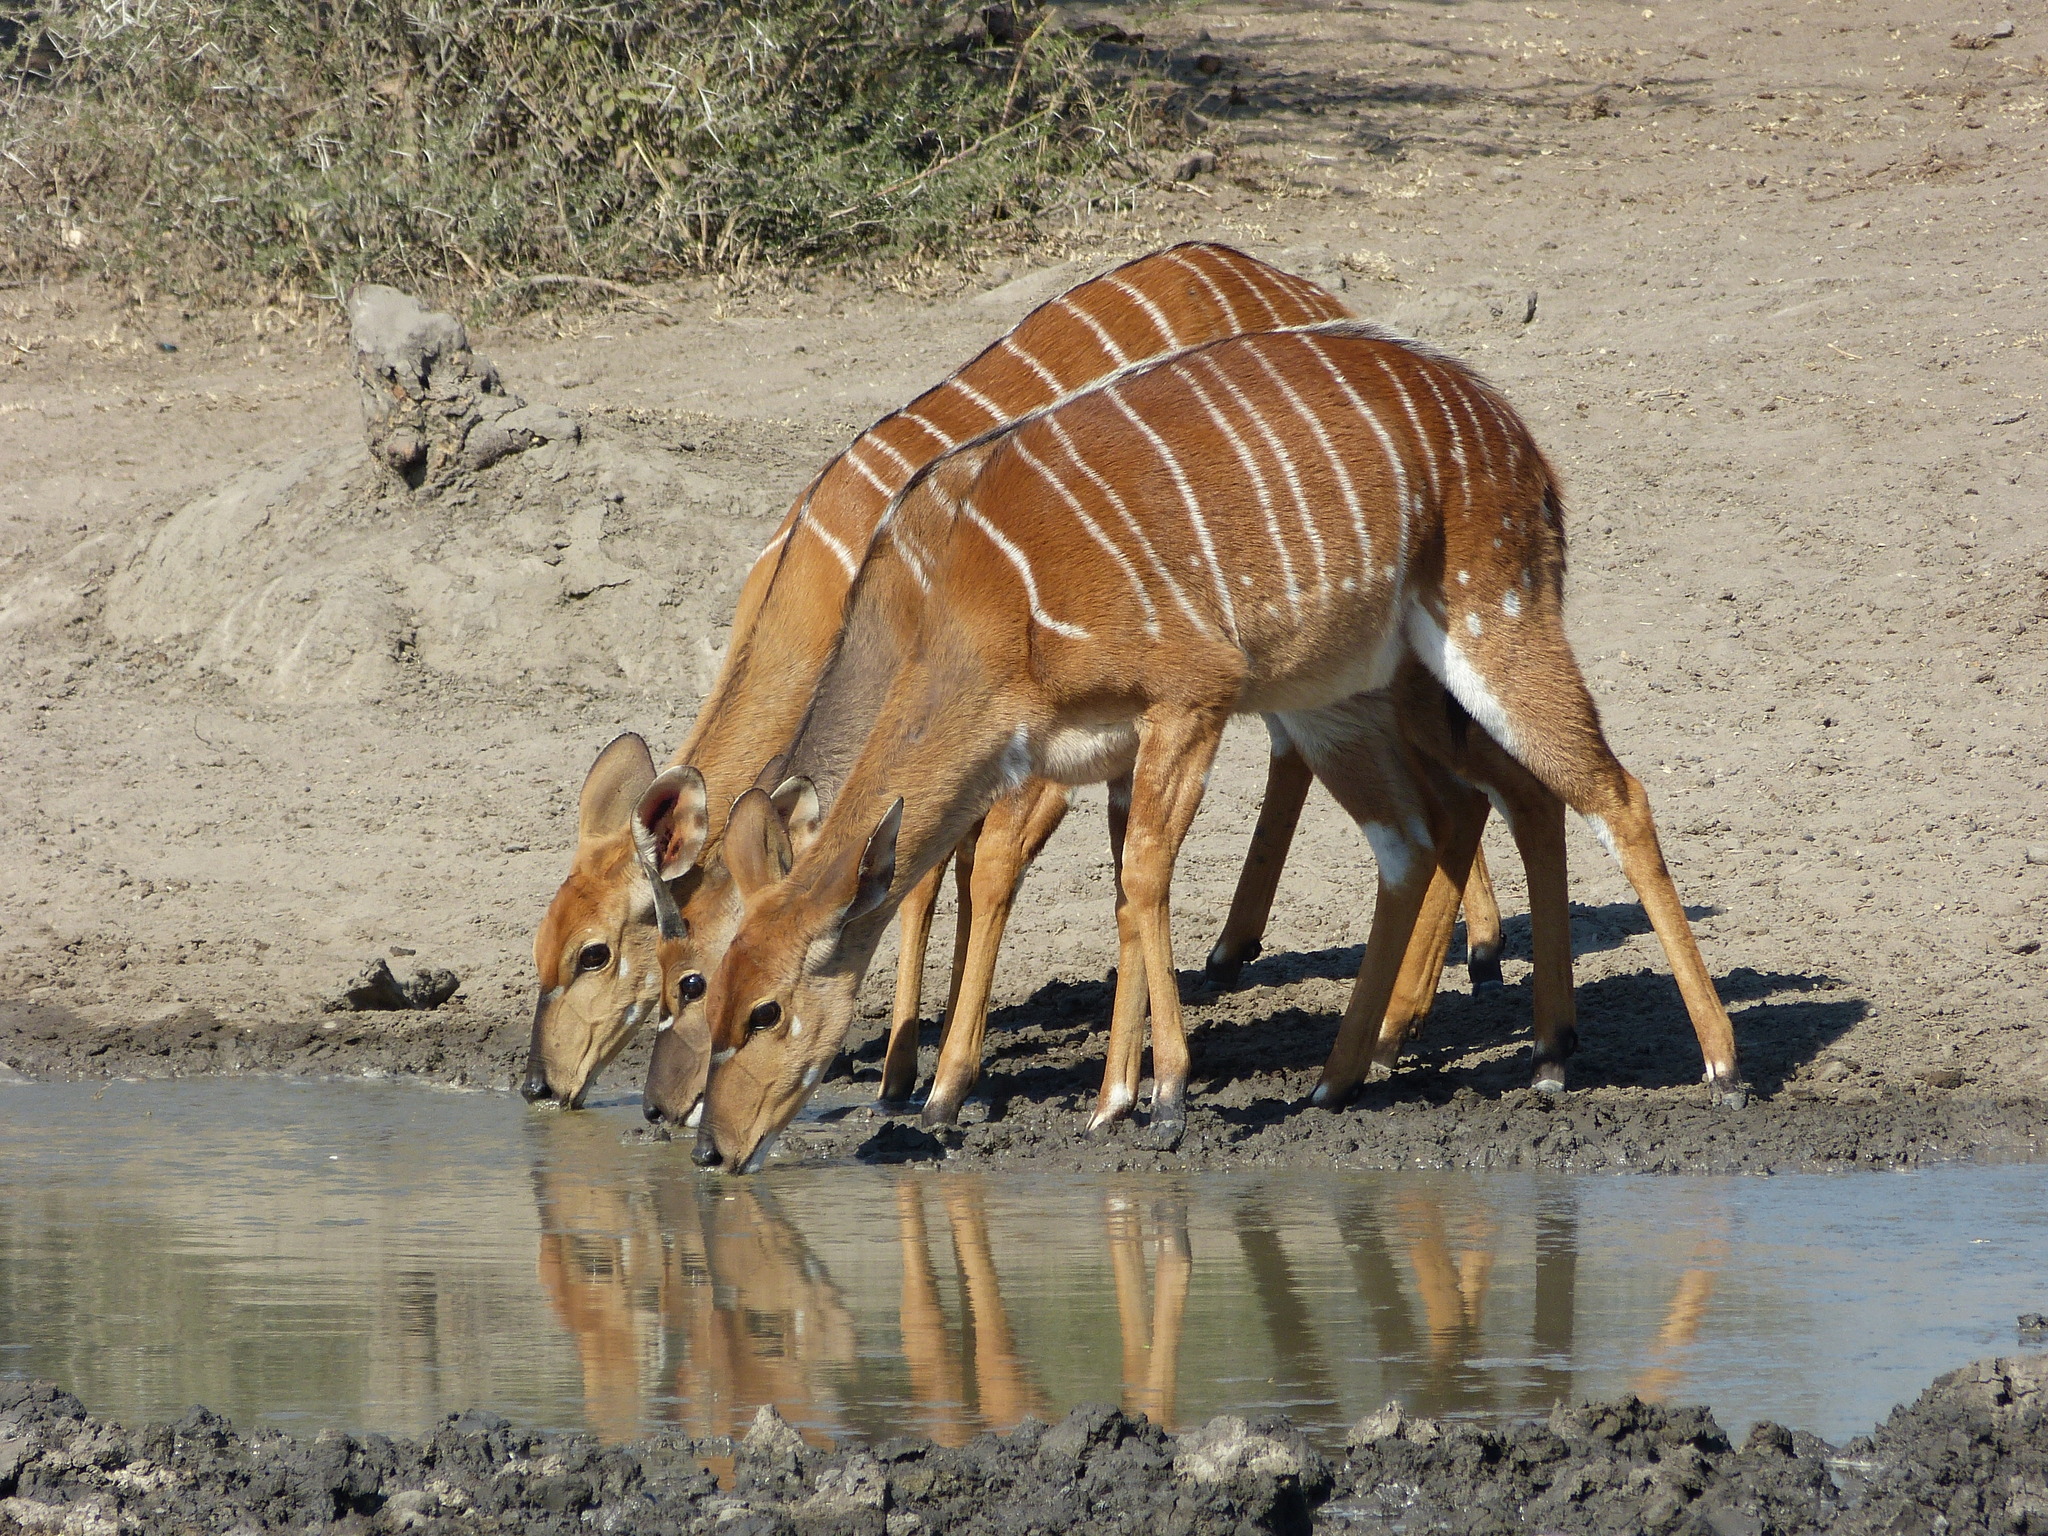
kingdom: Animalia
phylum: Chordata
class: Mammalia
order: Artiodactyla
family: Bovidae
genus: Tragelaphus
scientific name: Tragelaphus angasii
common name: Nyala
